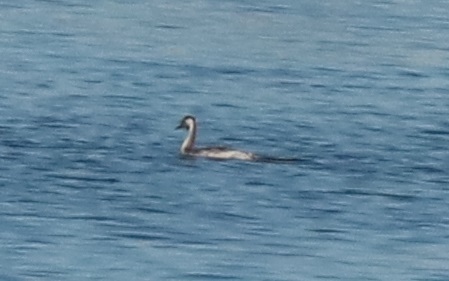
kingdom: Animalia
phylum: Chordata
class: Aves
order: Podicipediformes
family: Podicipedidae
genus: Podiceps
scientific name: Podiceps cristatus
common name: Great crested grebe
